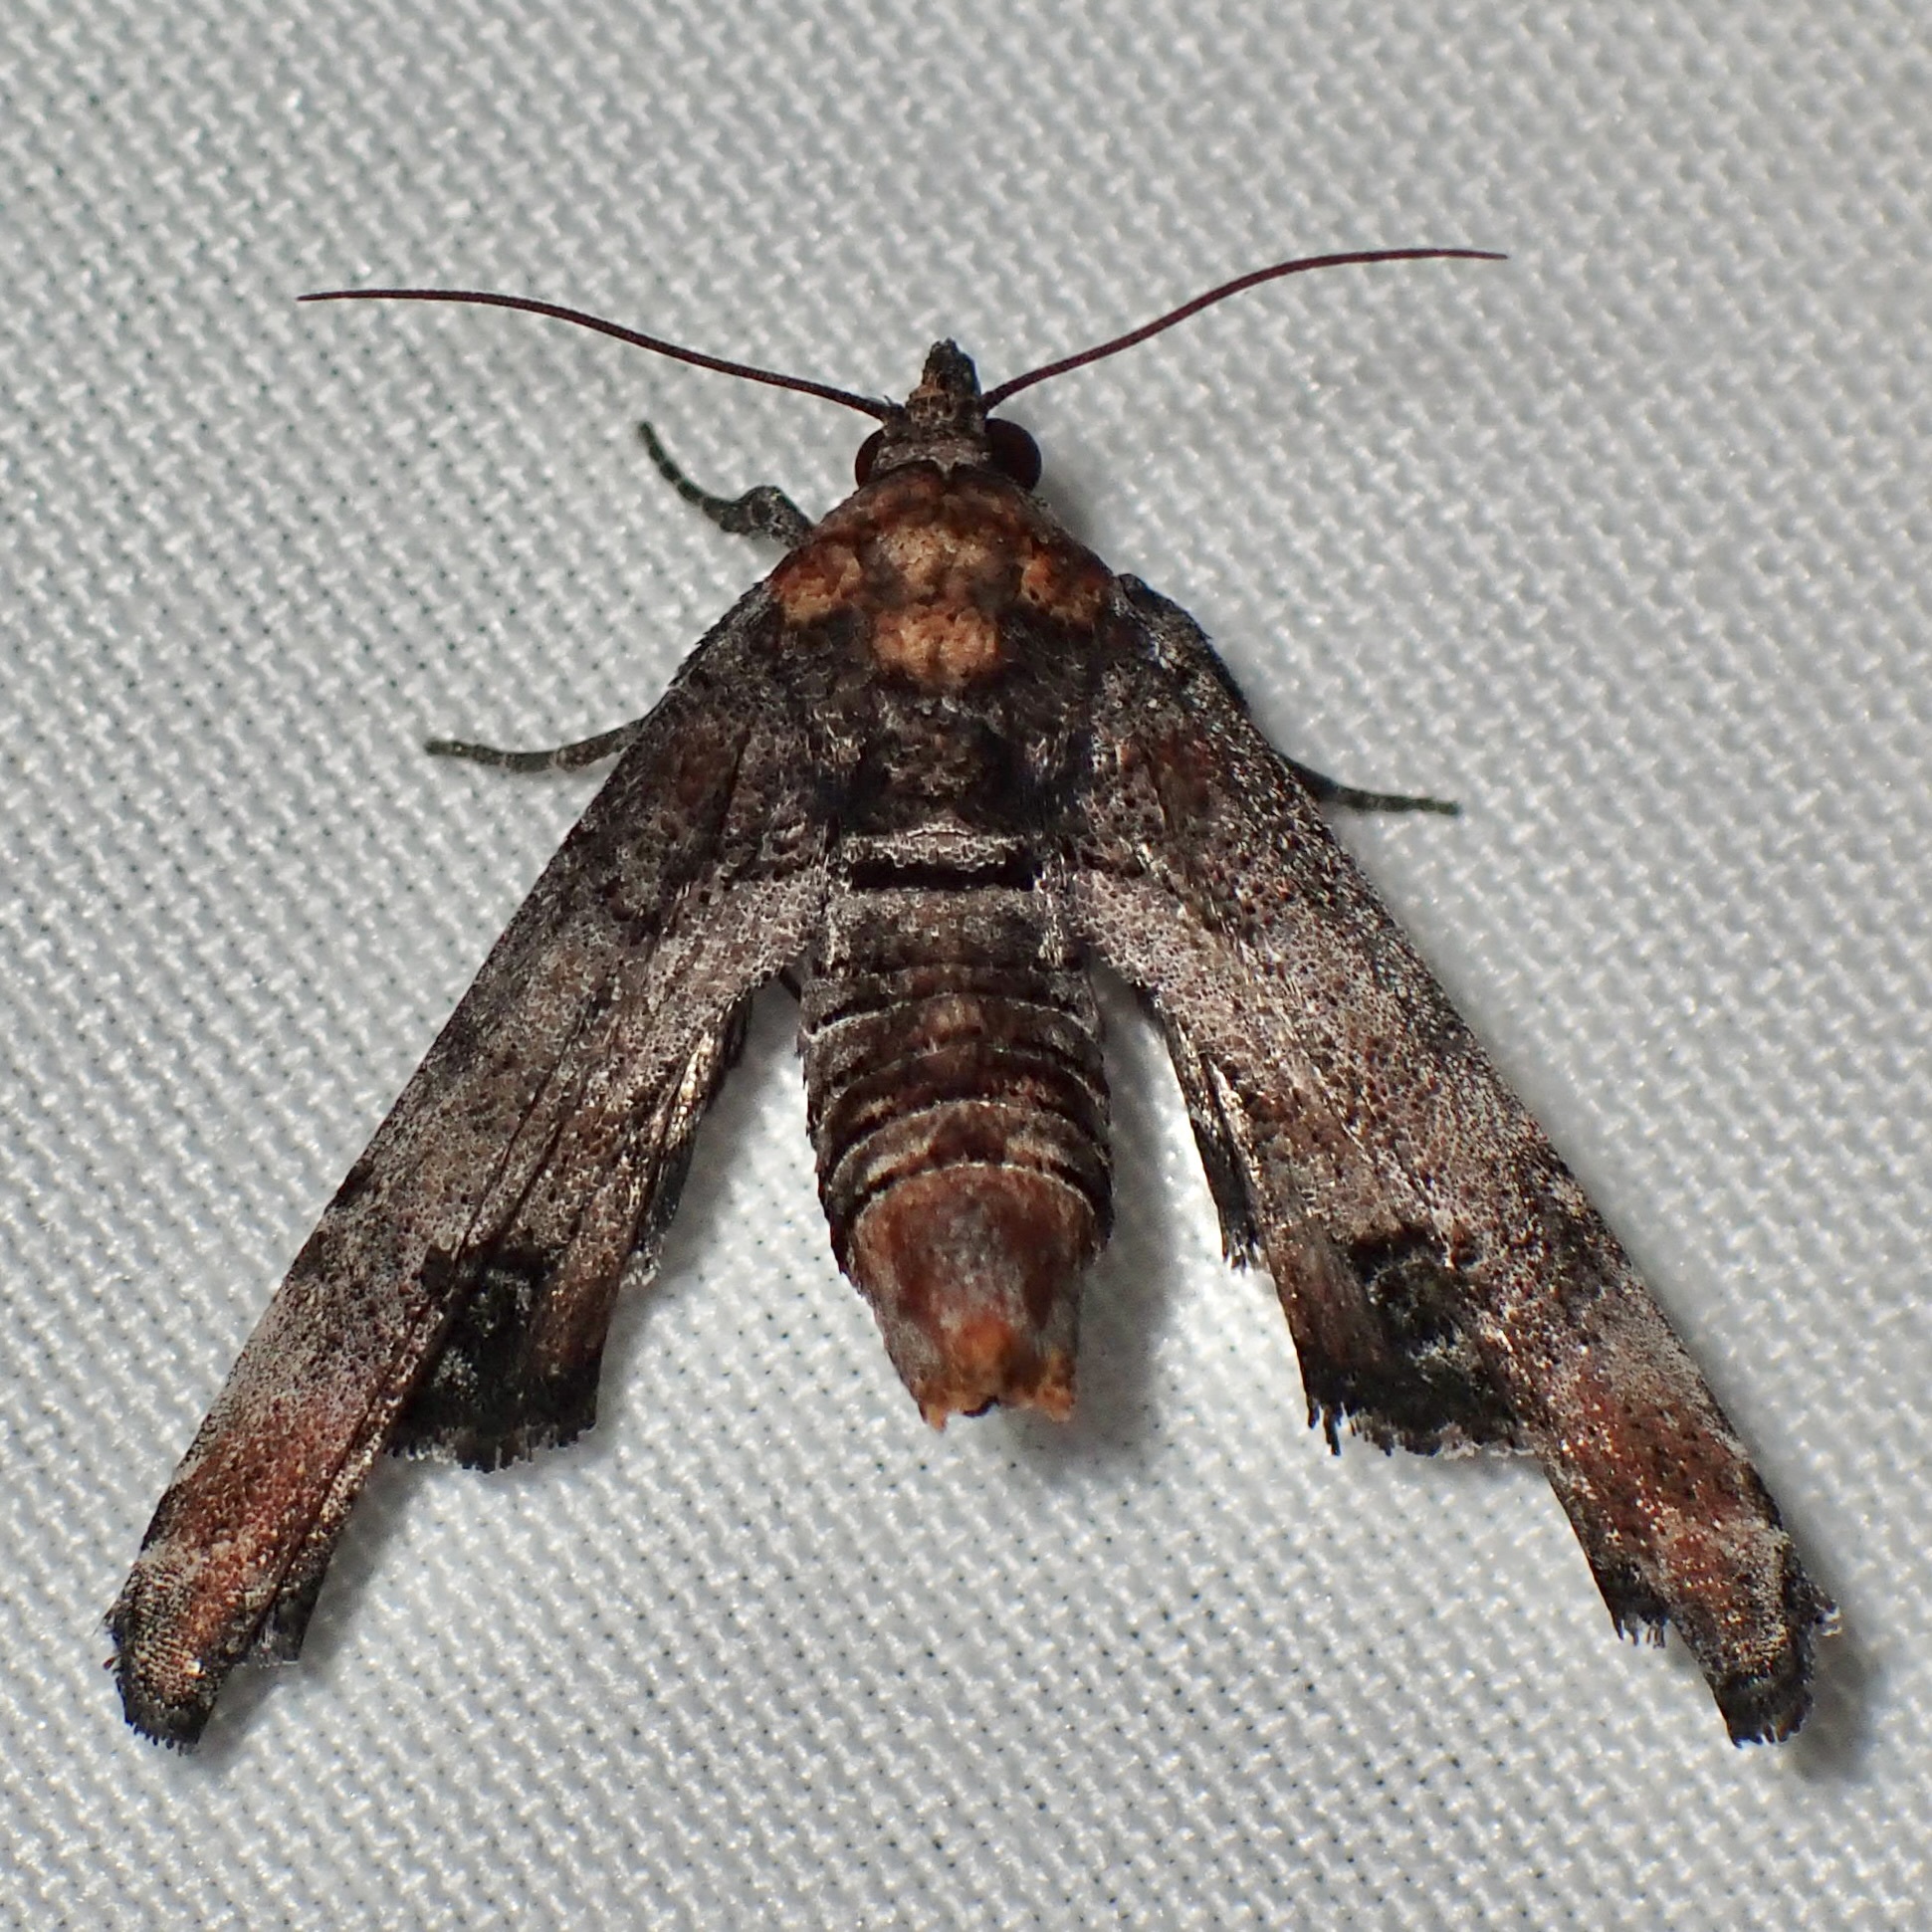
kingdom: Animalia
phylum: Arthropoda
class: Insecta
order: Lepidoptera
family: Euteliidae
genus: Marathyssa
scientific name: Marathyssa inficita
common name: Dark marathyssa moth
